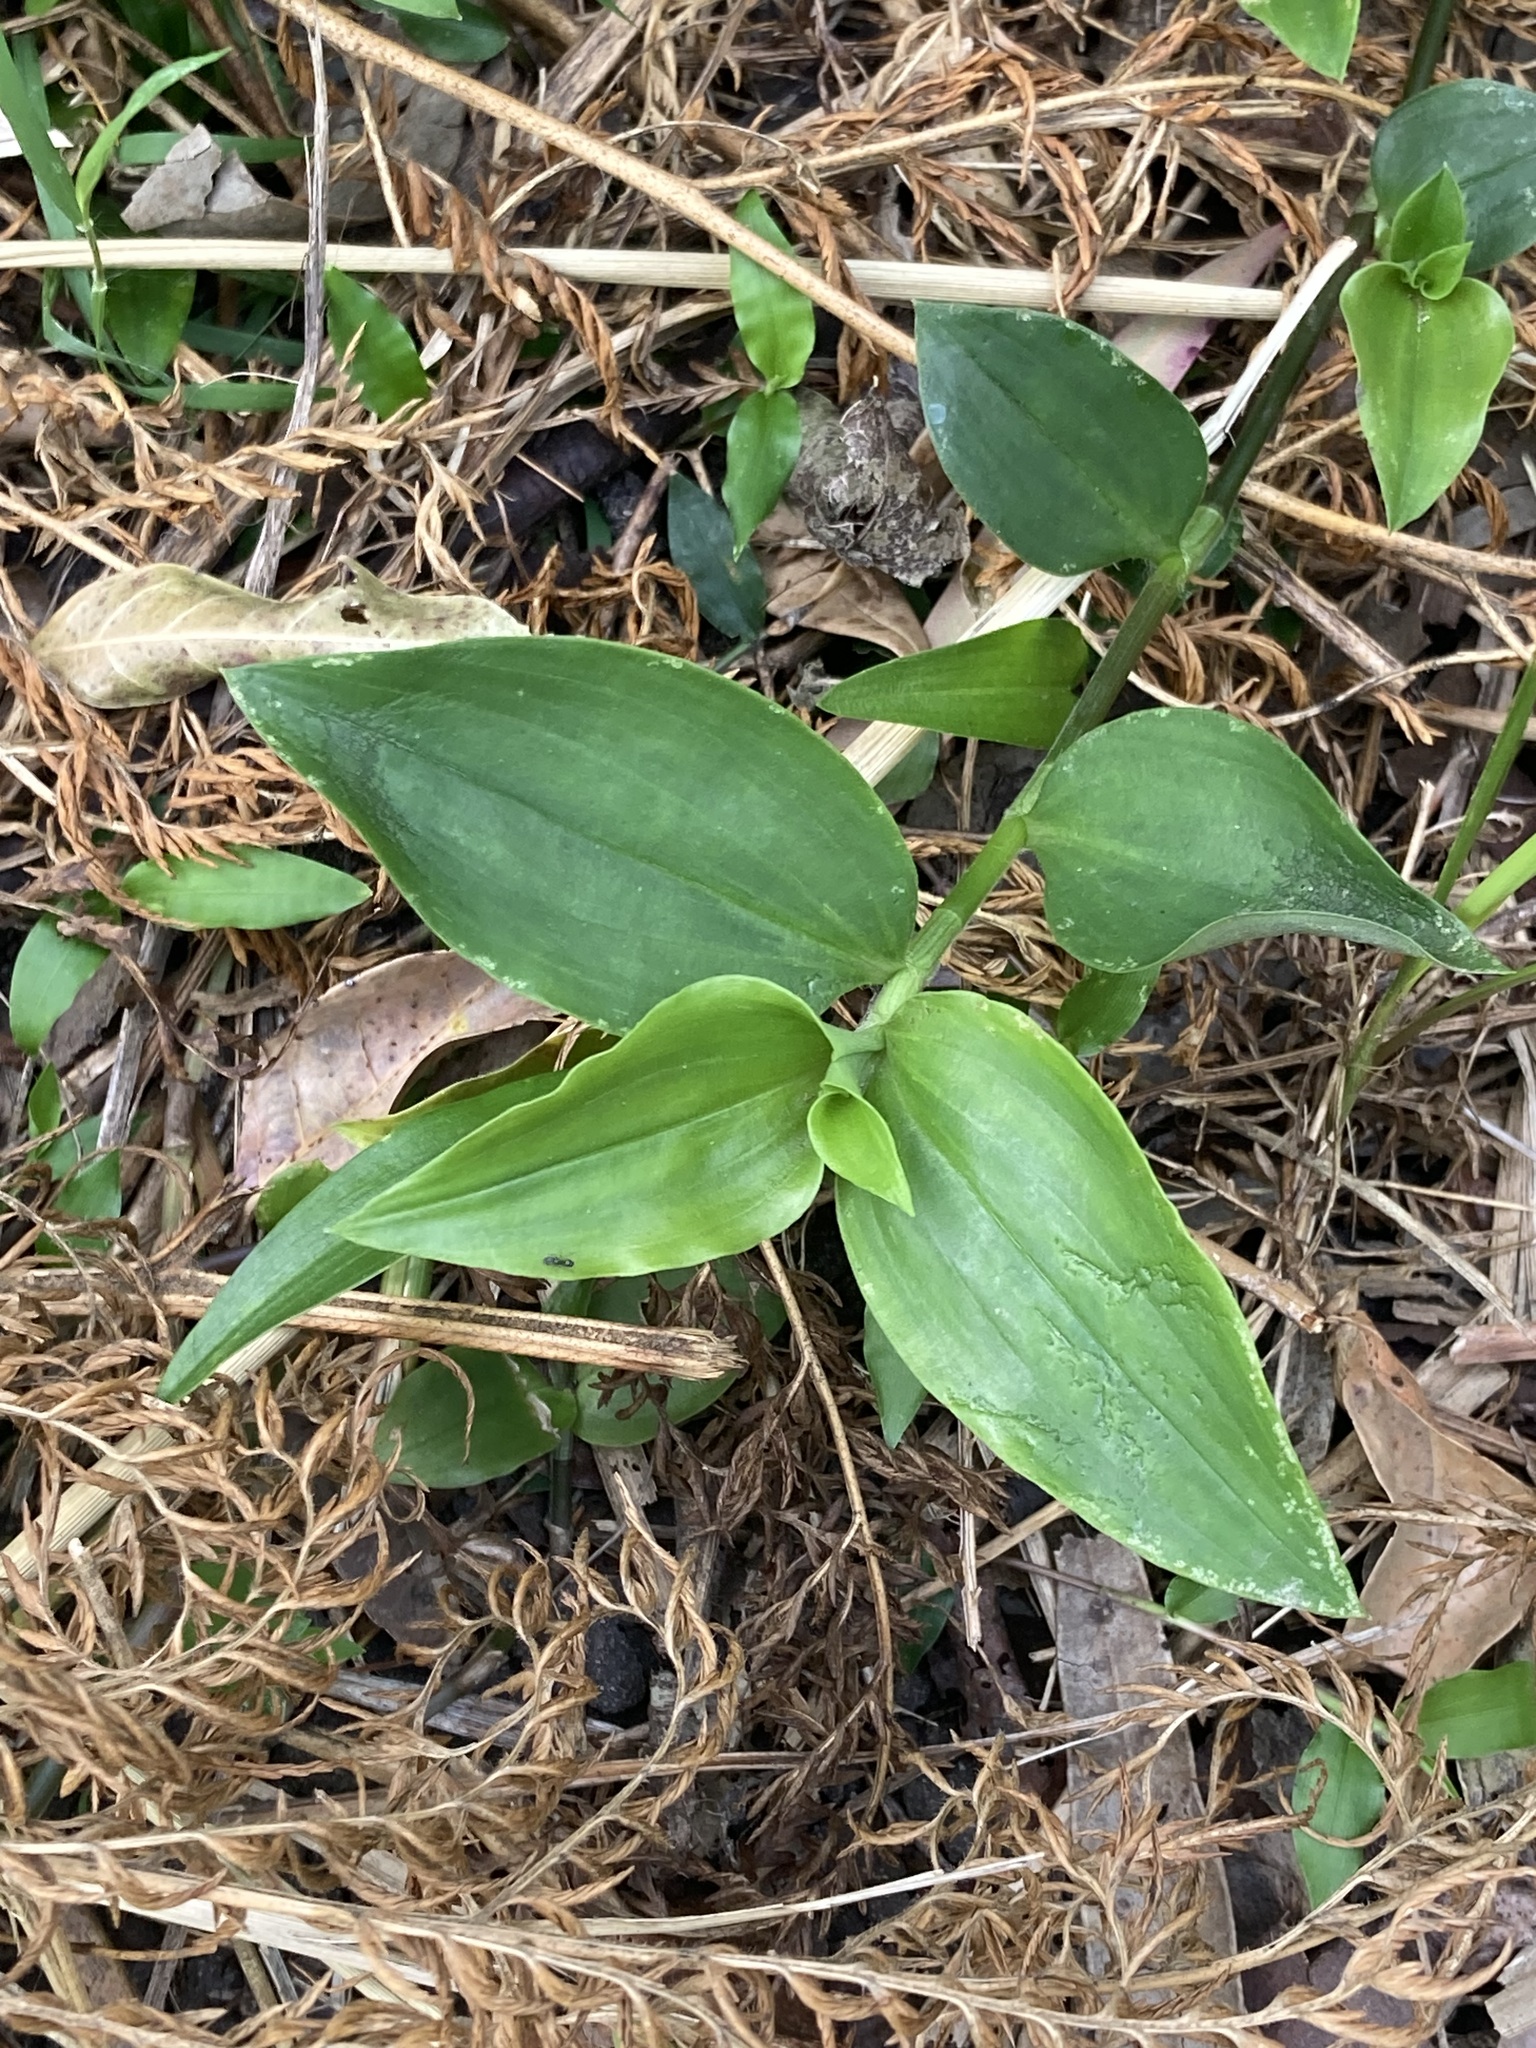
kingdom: Plantae
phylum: Tracheophyta
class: Liliopsida
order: Commelinales
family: Commelinaceae
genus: Tradescantia
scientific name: Tradescantia fluminensis
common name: Wandering-jew
